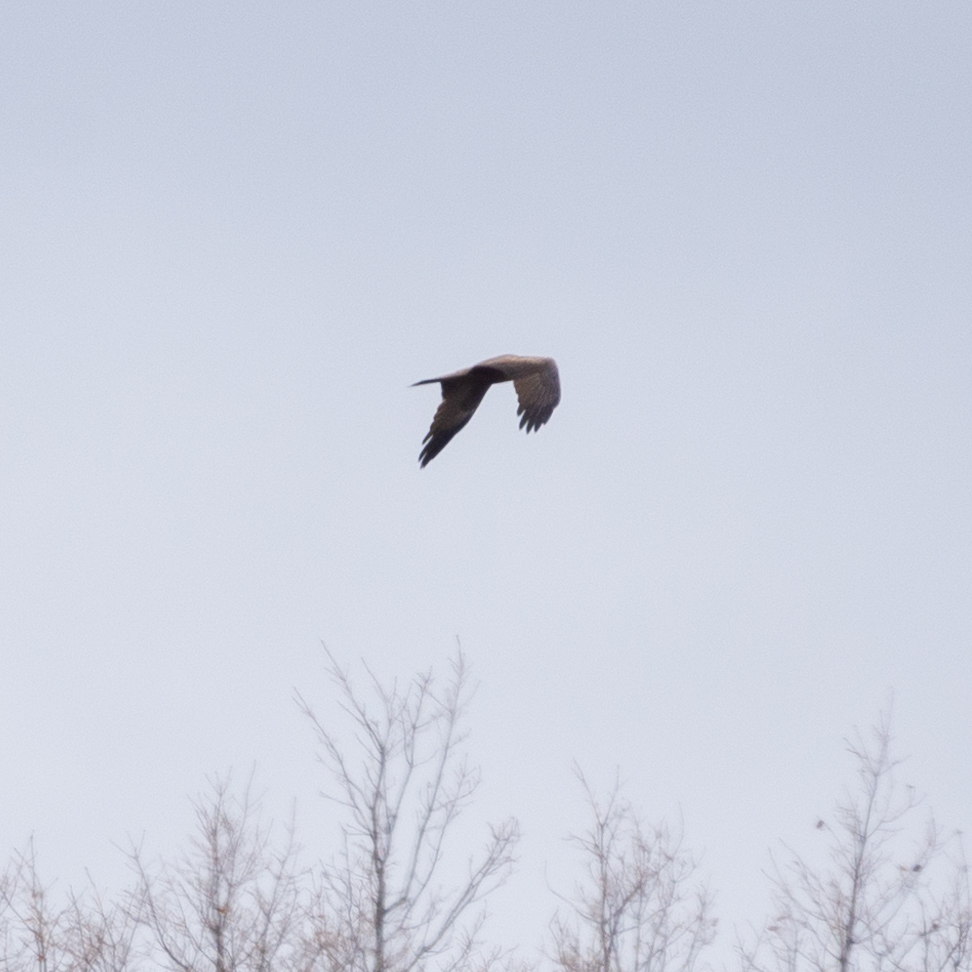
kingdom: Animalia
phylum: Chordata
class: Aves
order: Accipitriformes
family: Accipitridae
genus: Milvus
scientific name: Milvus migrans
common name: Black kite
